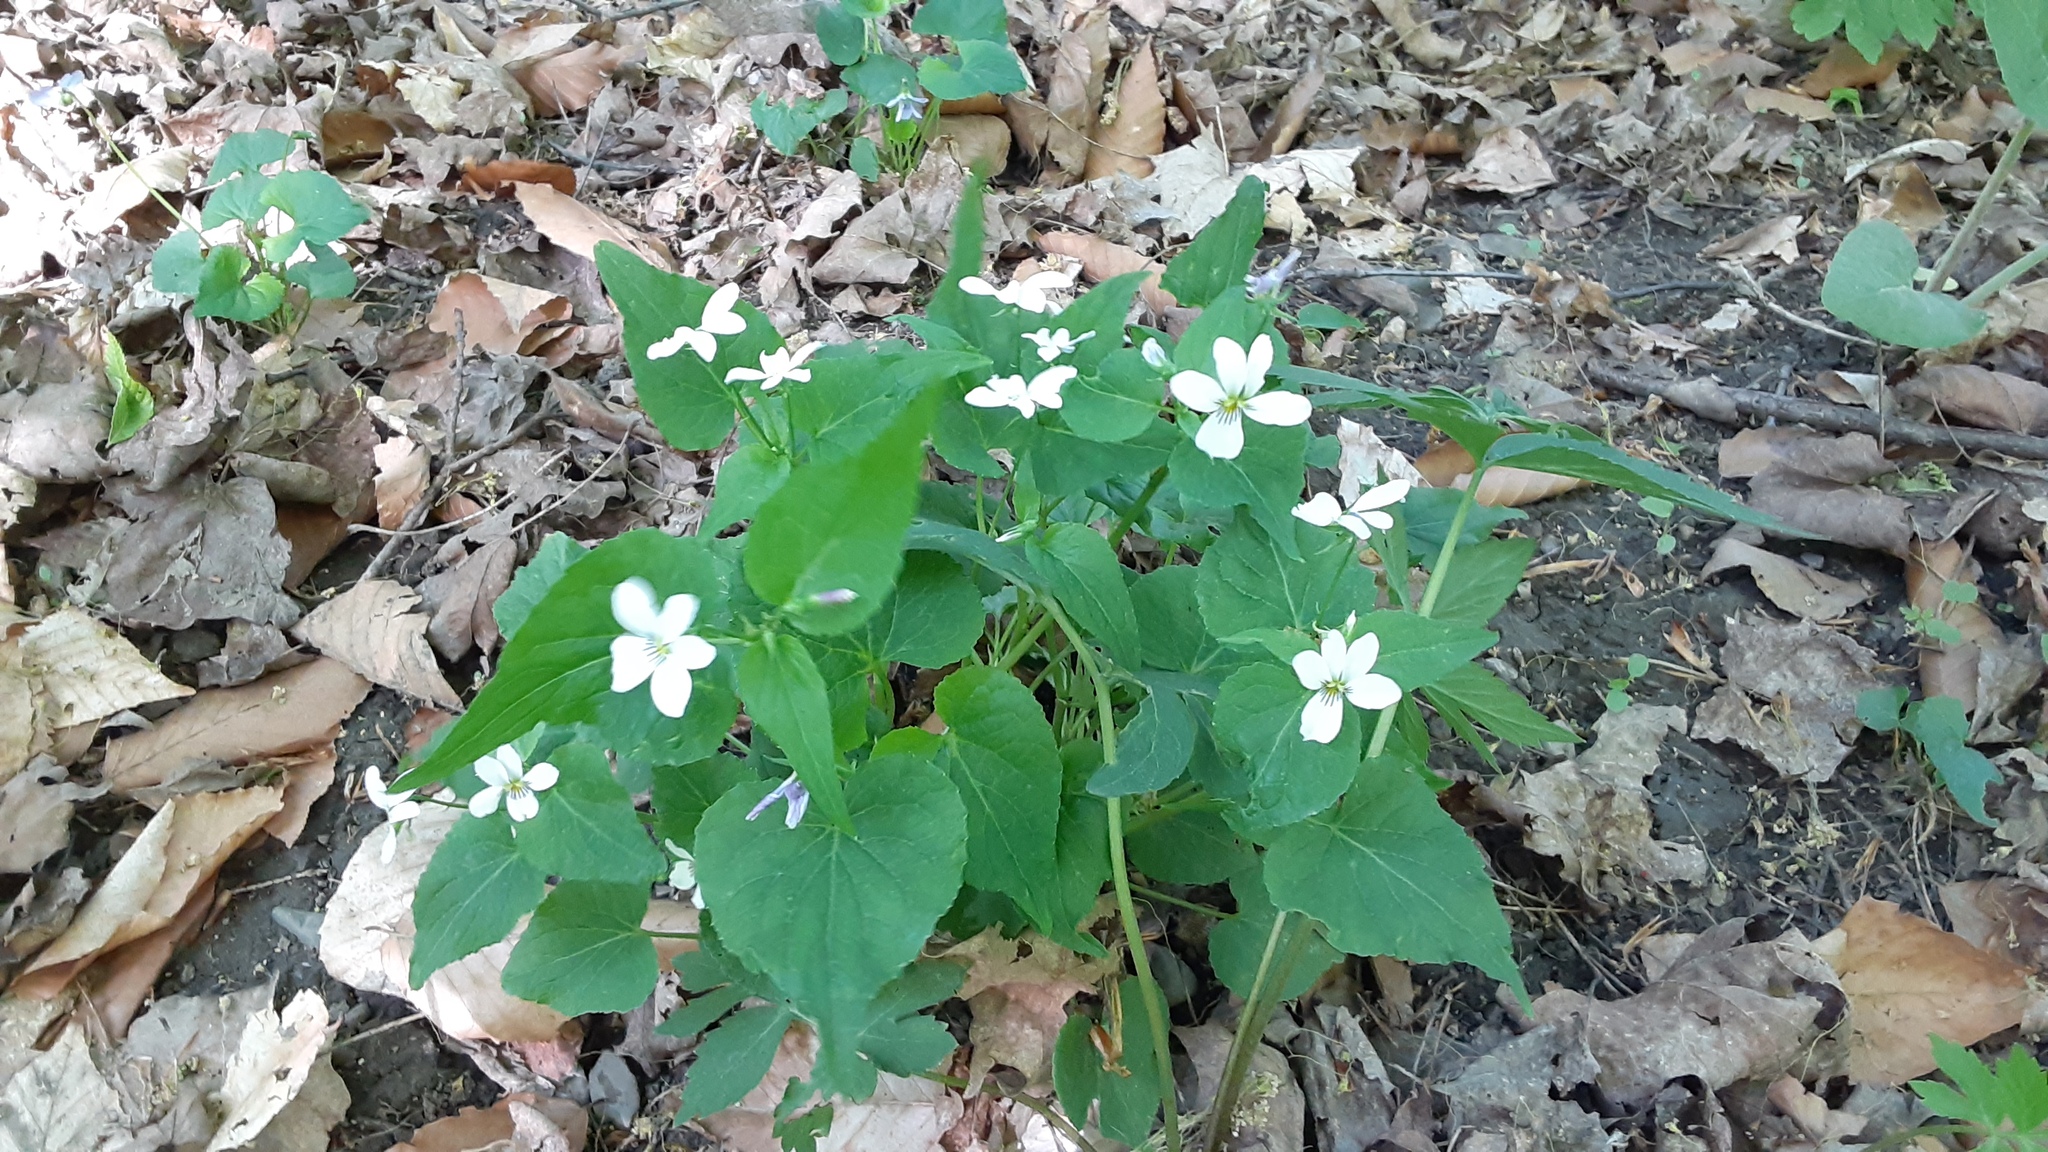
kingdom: Plantae
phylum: Tracheophyta
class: Magnoliopsida
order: Malpighiales
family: Violaceae
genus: Viola
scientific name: Viola canadensis
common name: Canada violet
